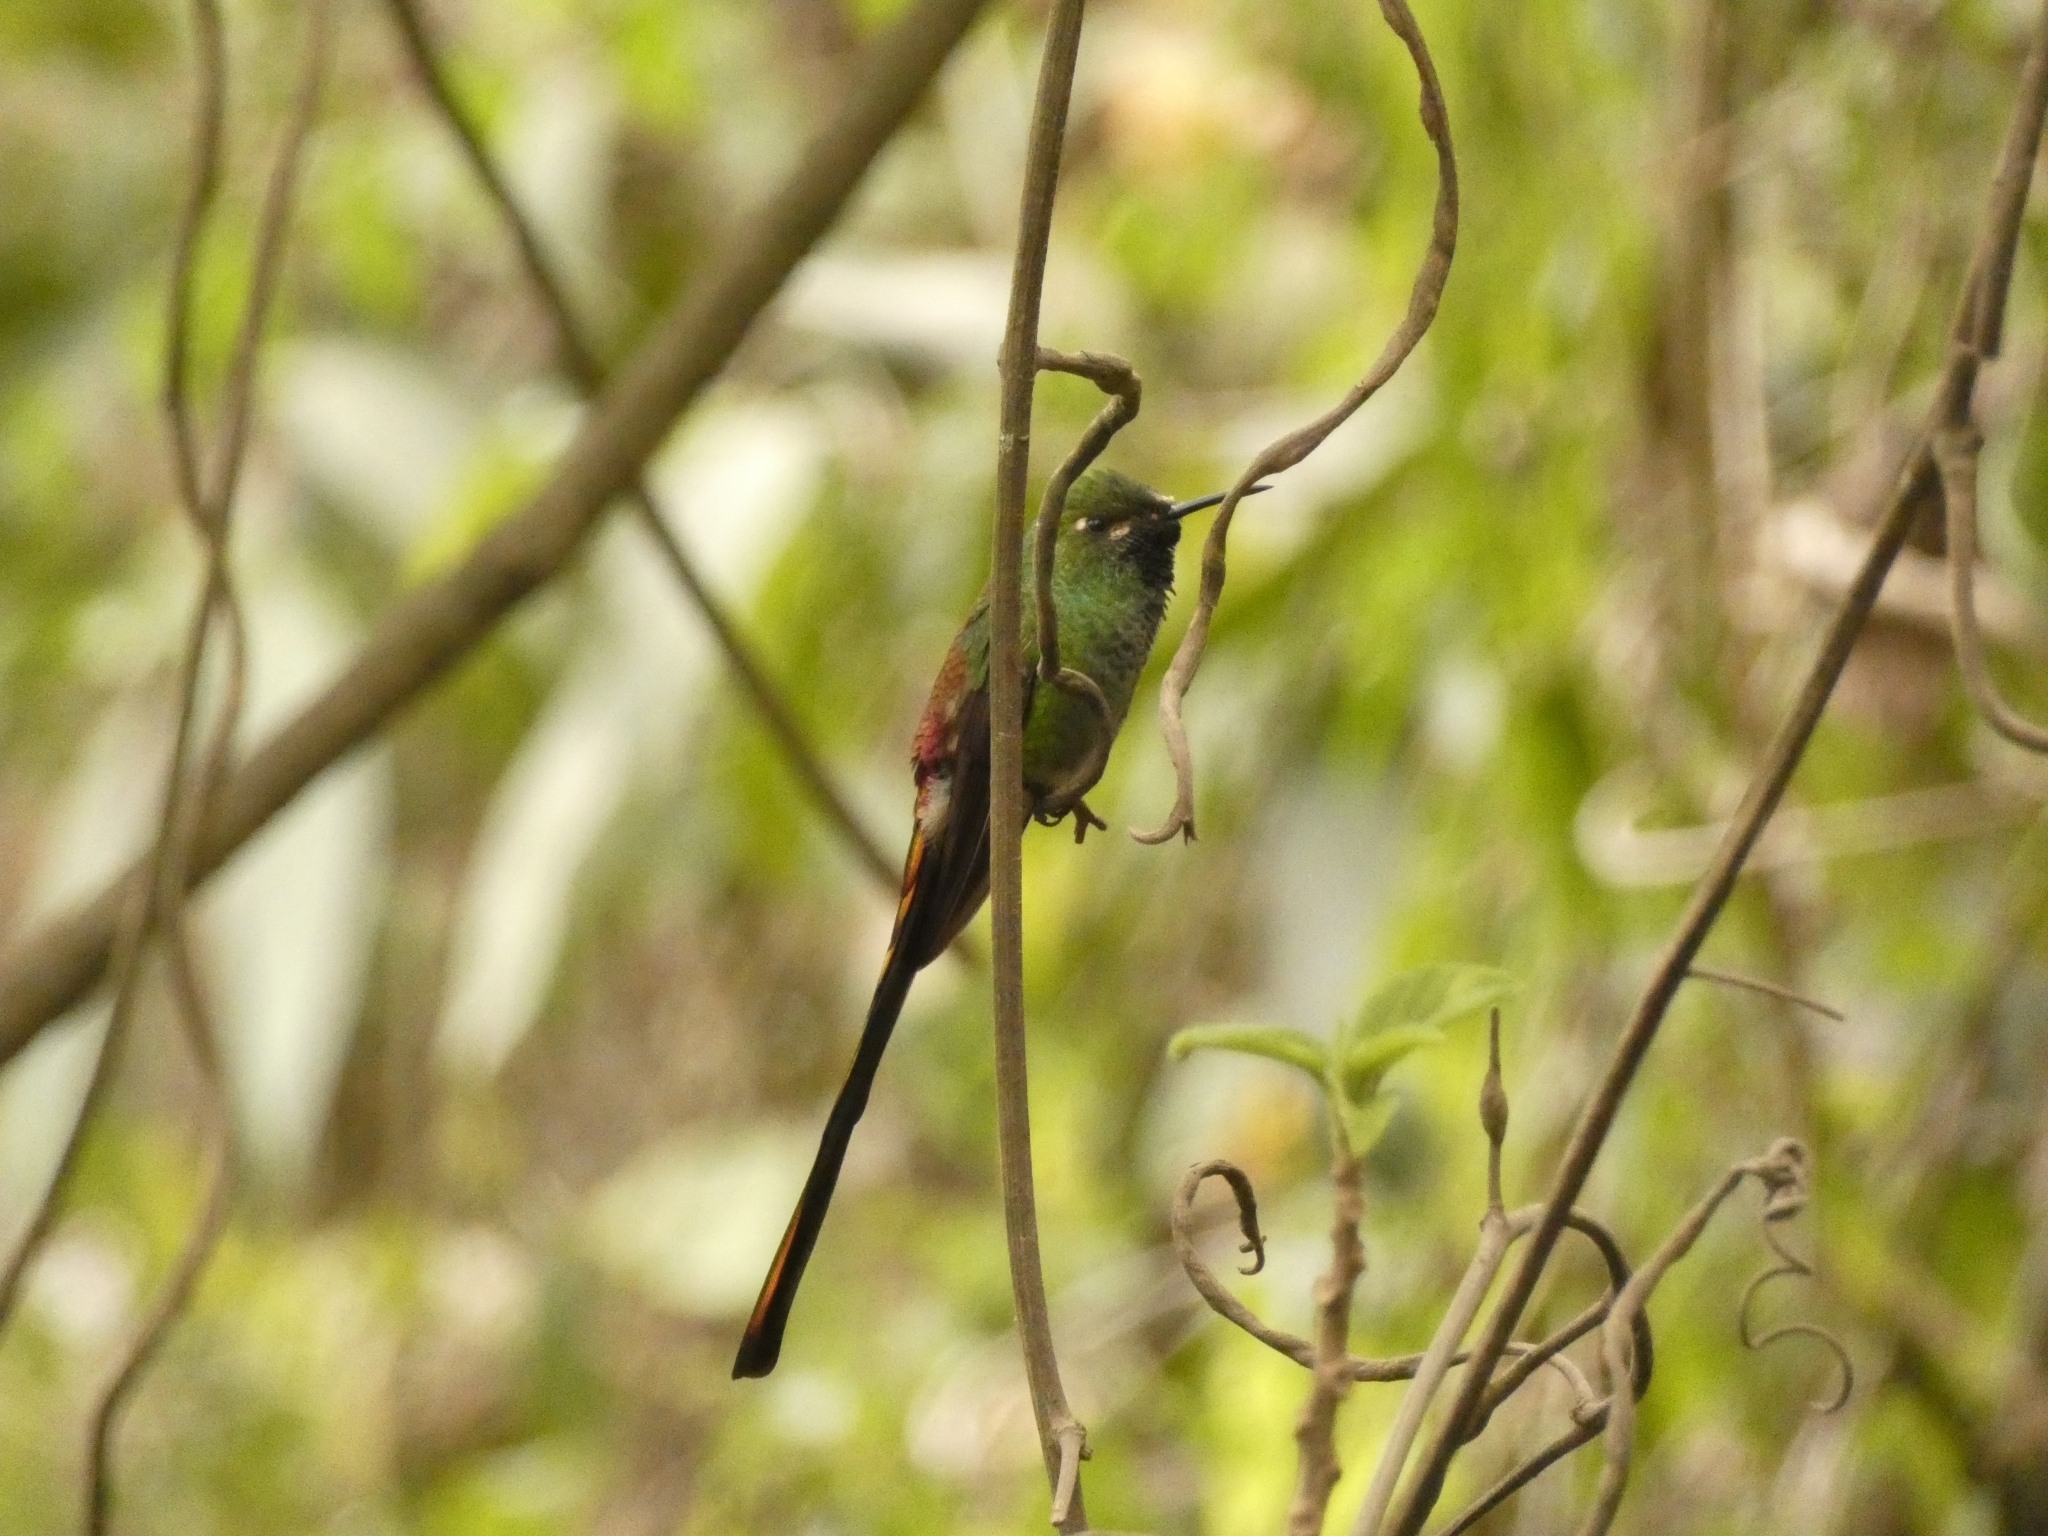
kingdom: Animalia
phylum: Chordata
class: Aves
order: Apodiformes
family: Trochilidae
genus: Sappho
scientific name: Sappho sparganurus
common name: Red-tailed comet
